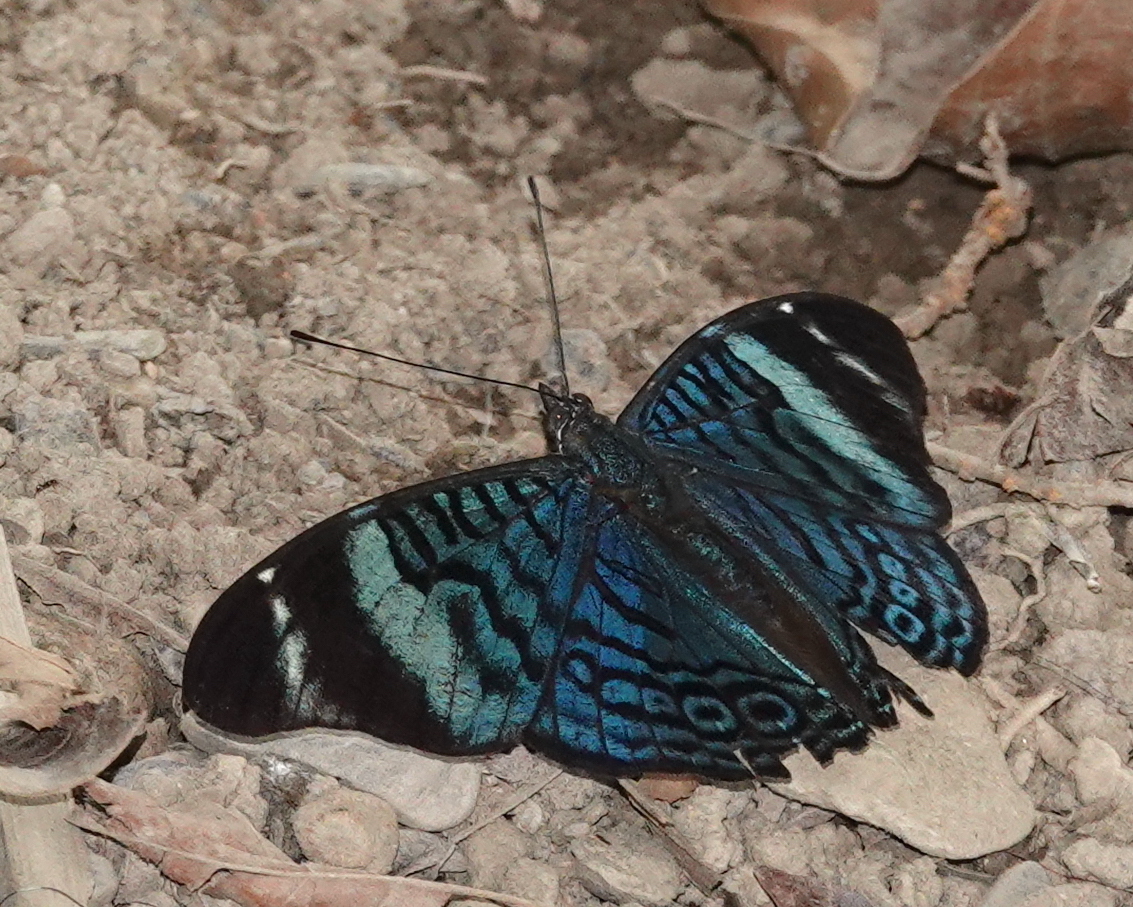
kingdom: Animalia
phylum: Arthropoda
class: Insecta
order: Lepidoptera
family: Nymphalidae
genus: Panacea
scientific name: Panacea procilla
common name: Procilla beauty
